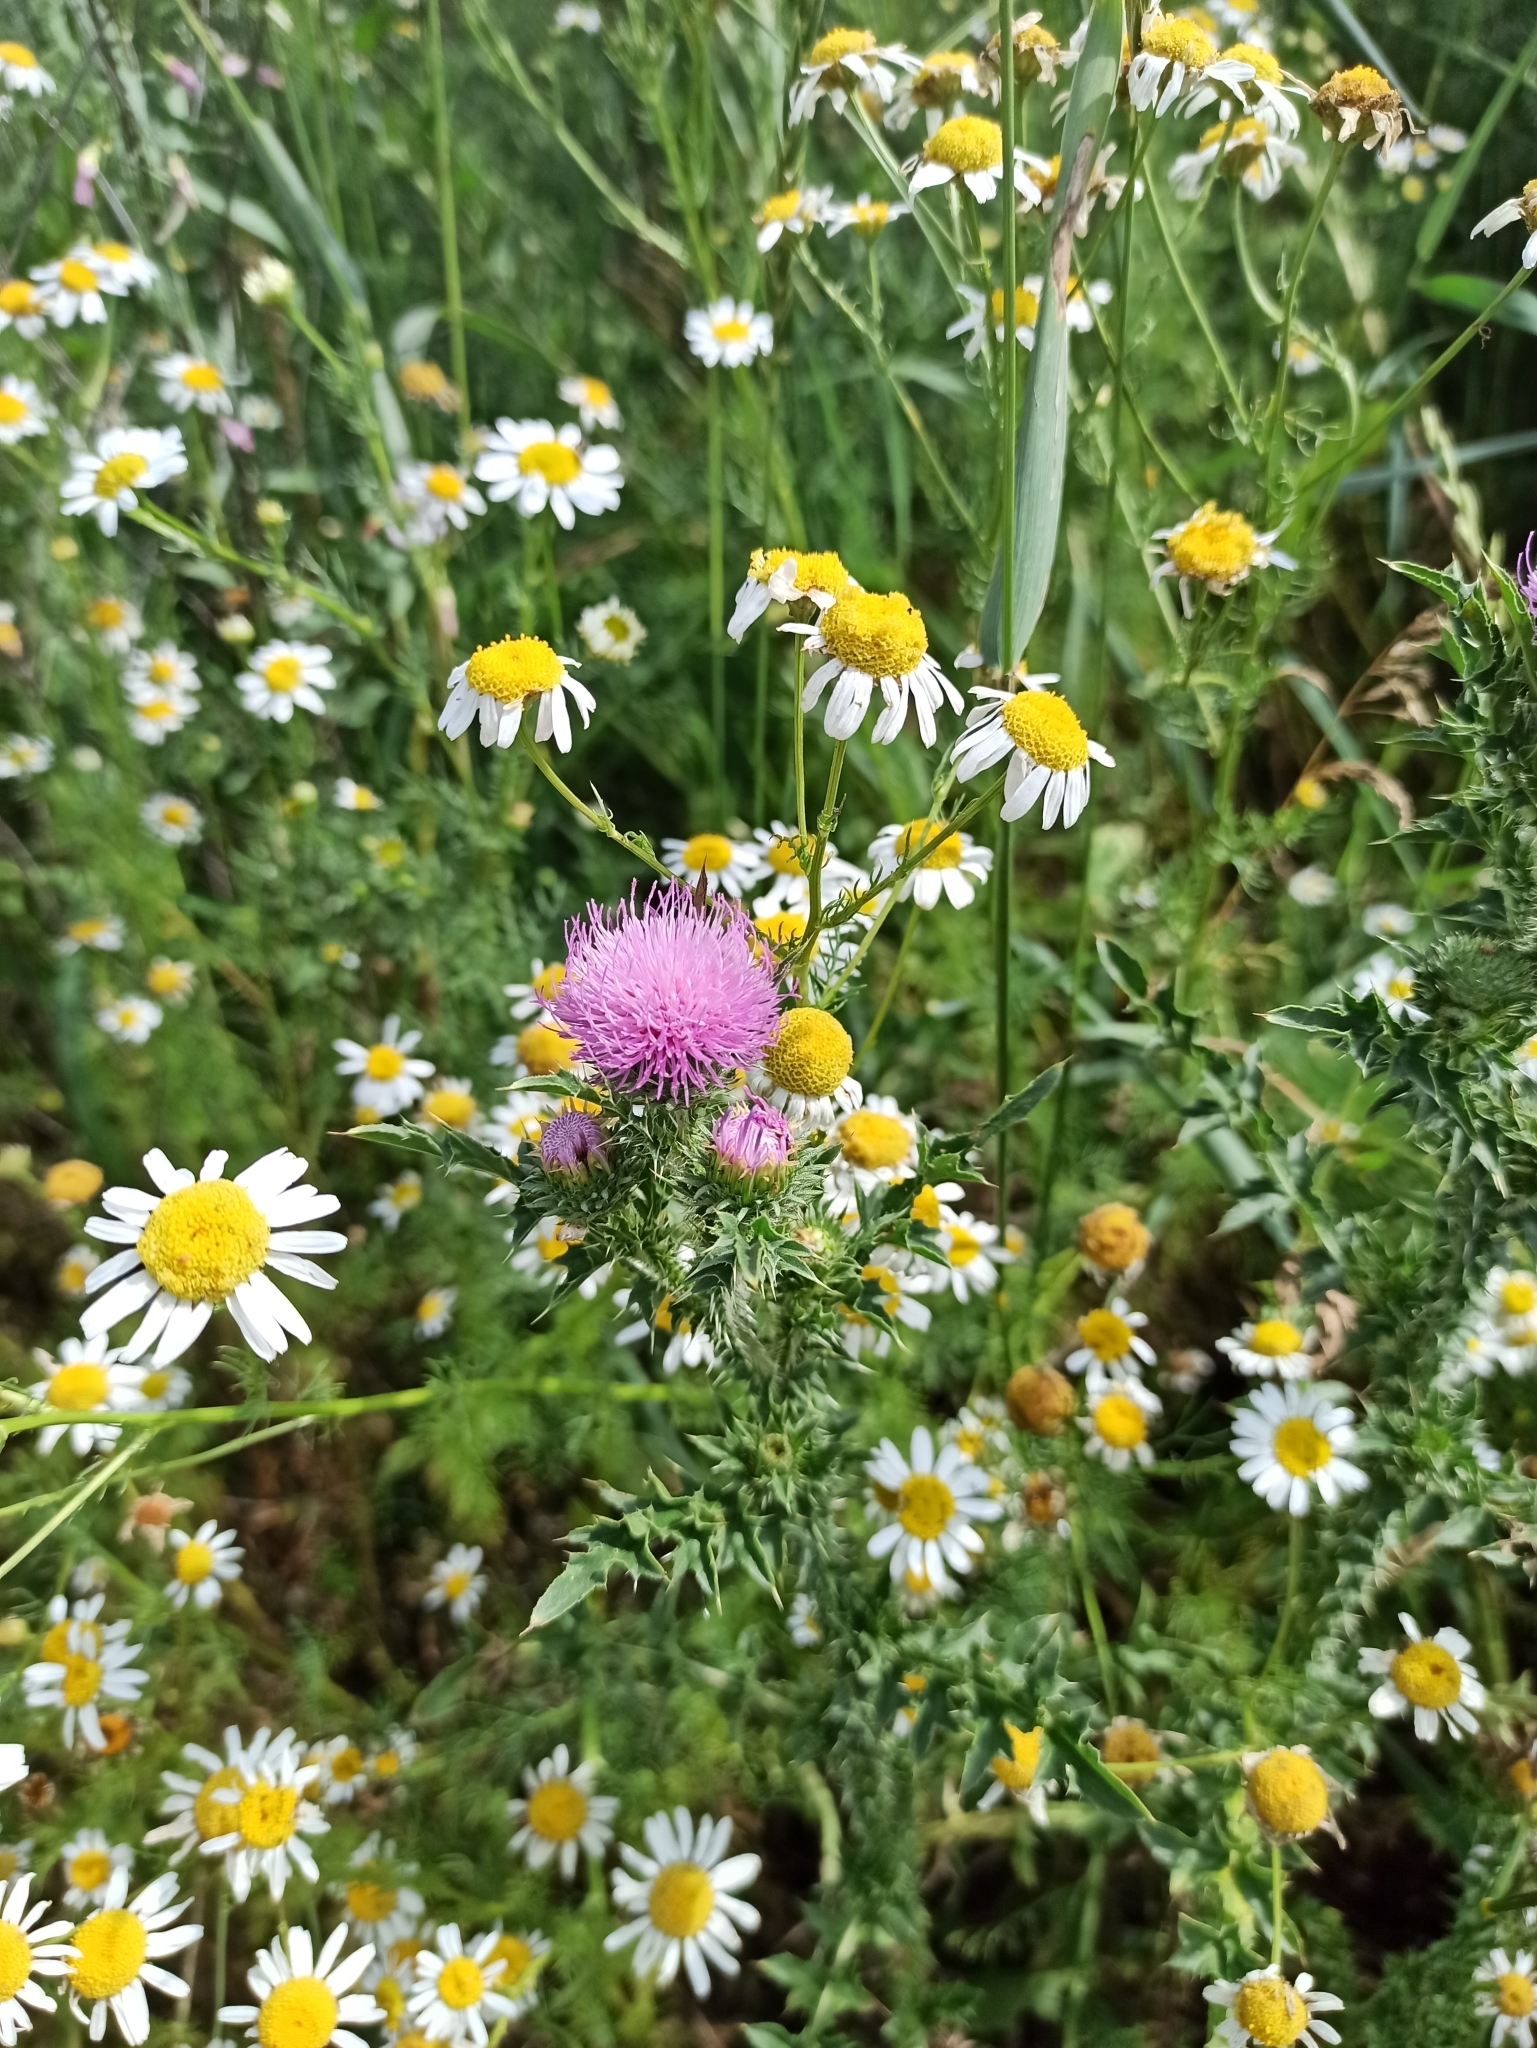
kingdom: Plantae
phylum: Tracheophyta
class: Magnoliopsida
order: Asterales
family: Asteraceae
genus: Carduus
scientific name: Carduus acanthoides
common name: Plumeless thistle
